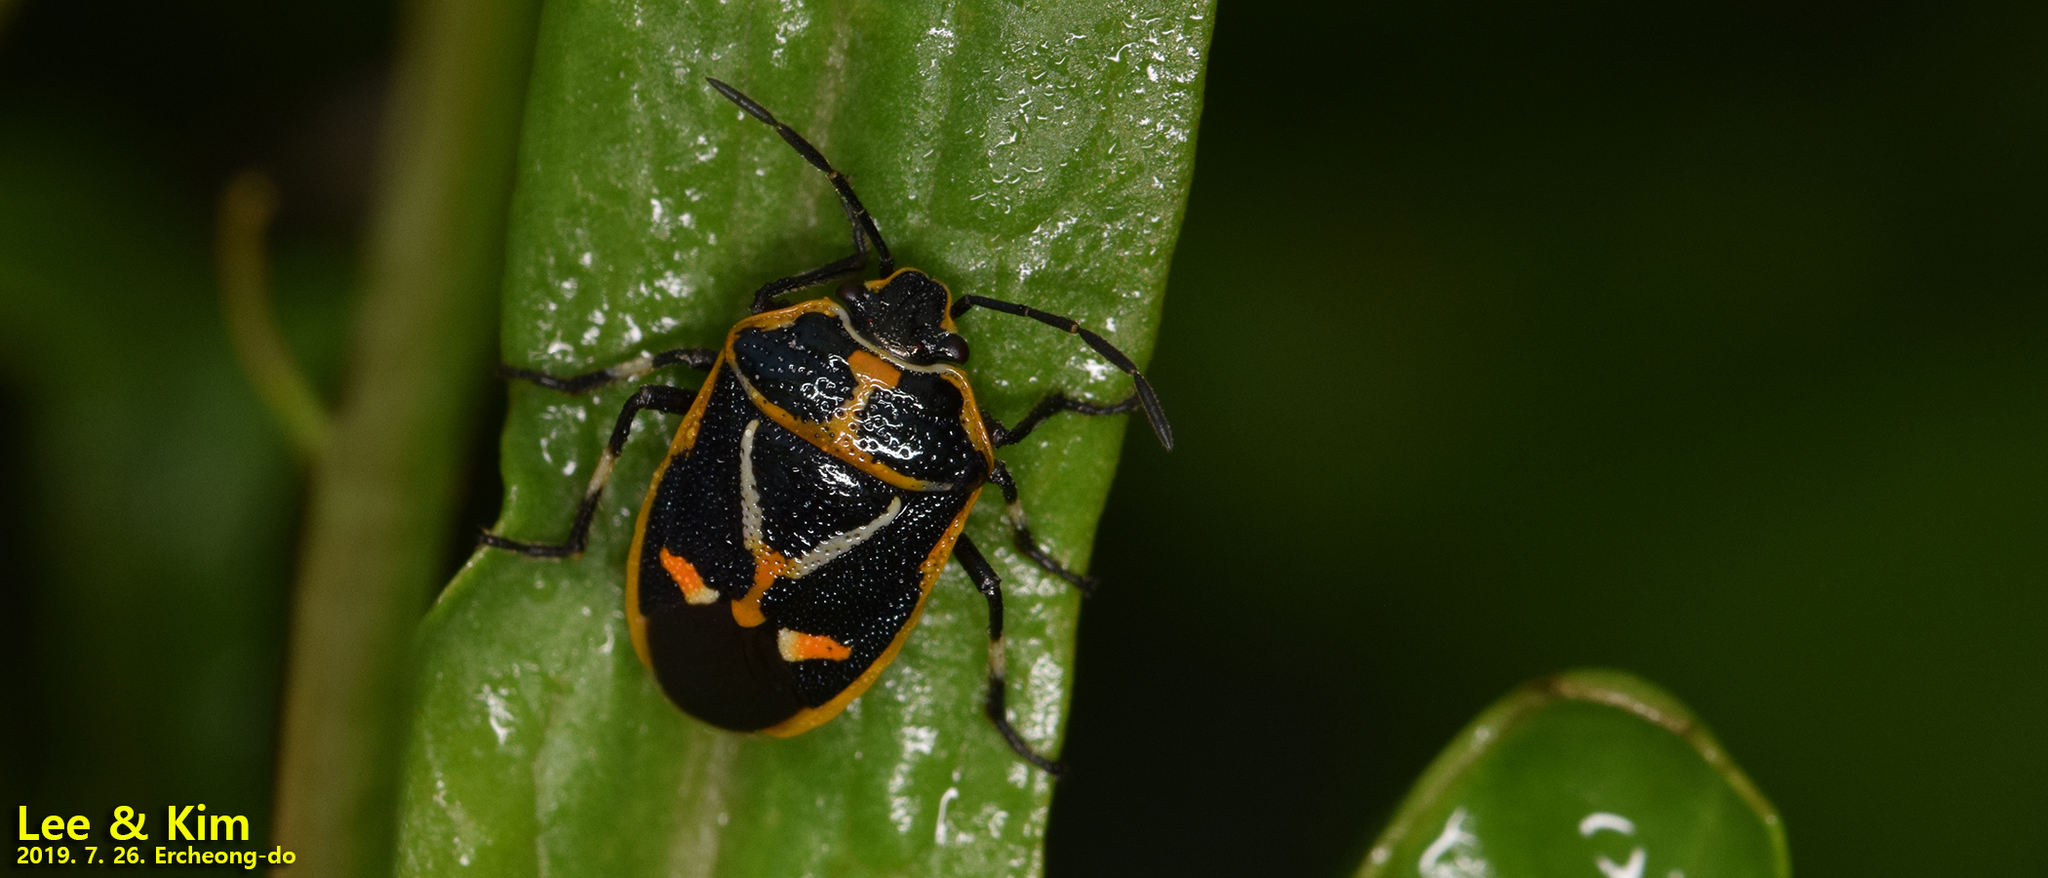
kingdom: Animalia
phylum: Arthropoda
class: Insecta
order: Hemiptera
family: Pentatomidae
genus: Eurydema
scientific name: Eurydema gebleri
